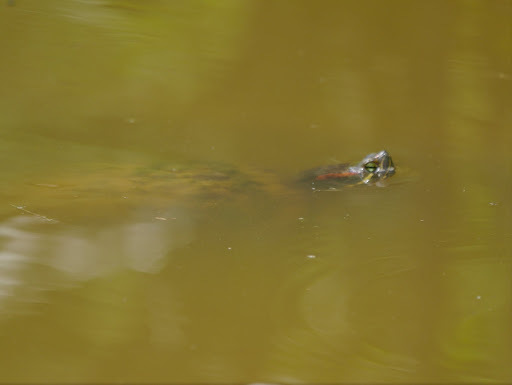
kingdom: Animalia
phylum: Chordata
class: Testudines
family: Emydidae
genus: Trachemys
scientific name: Trachemys scripta
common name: Slider
